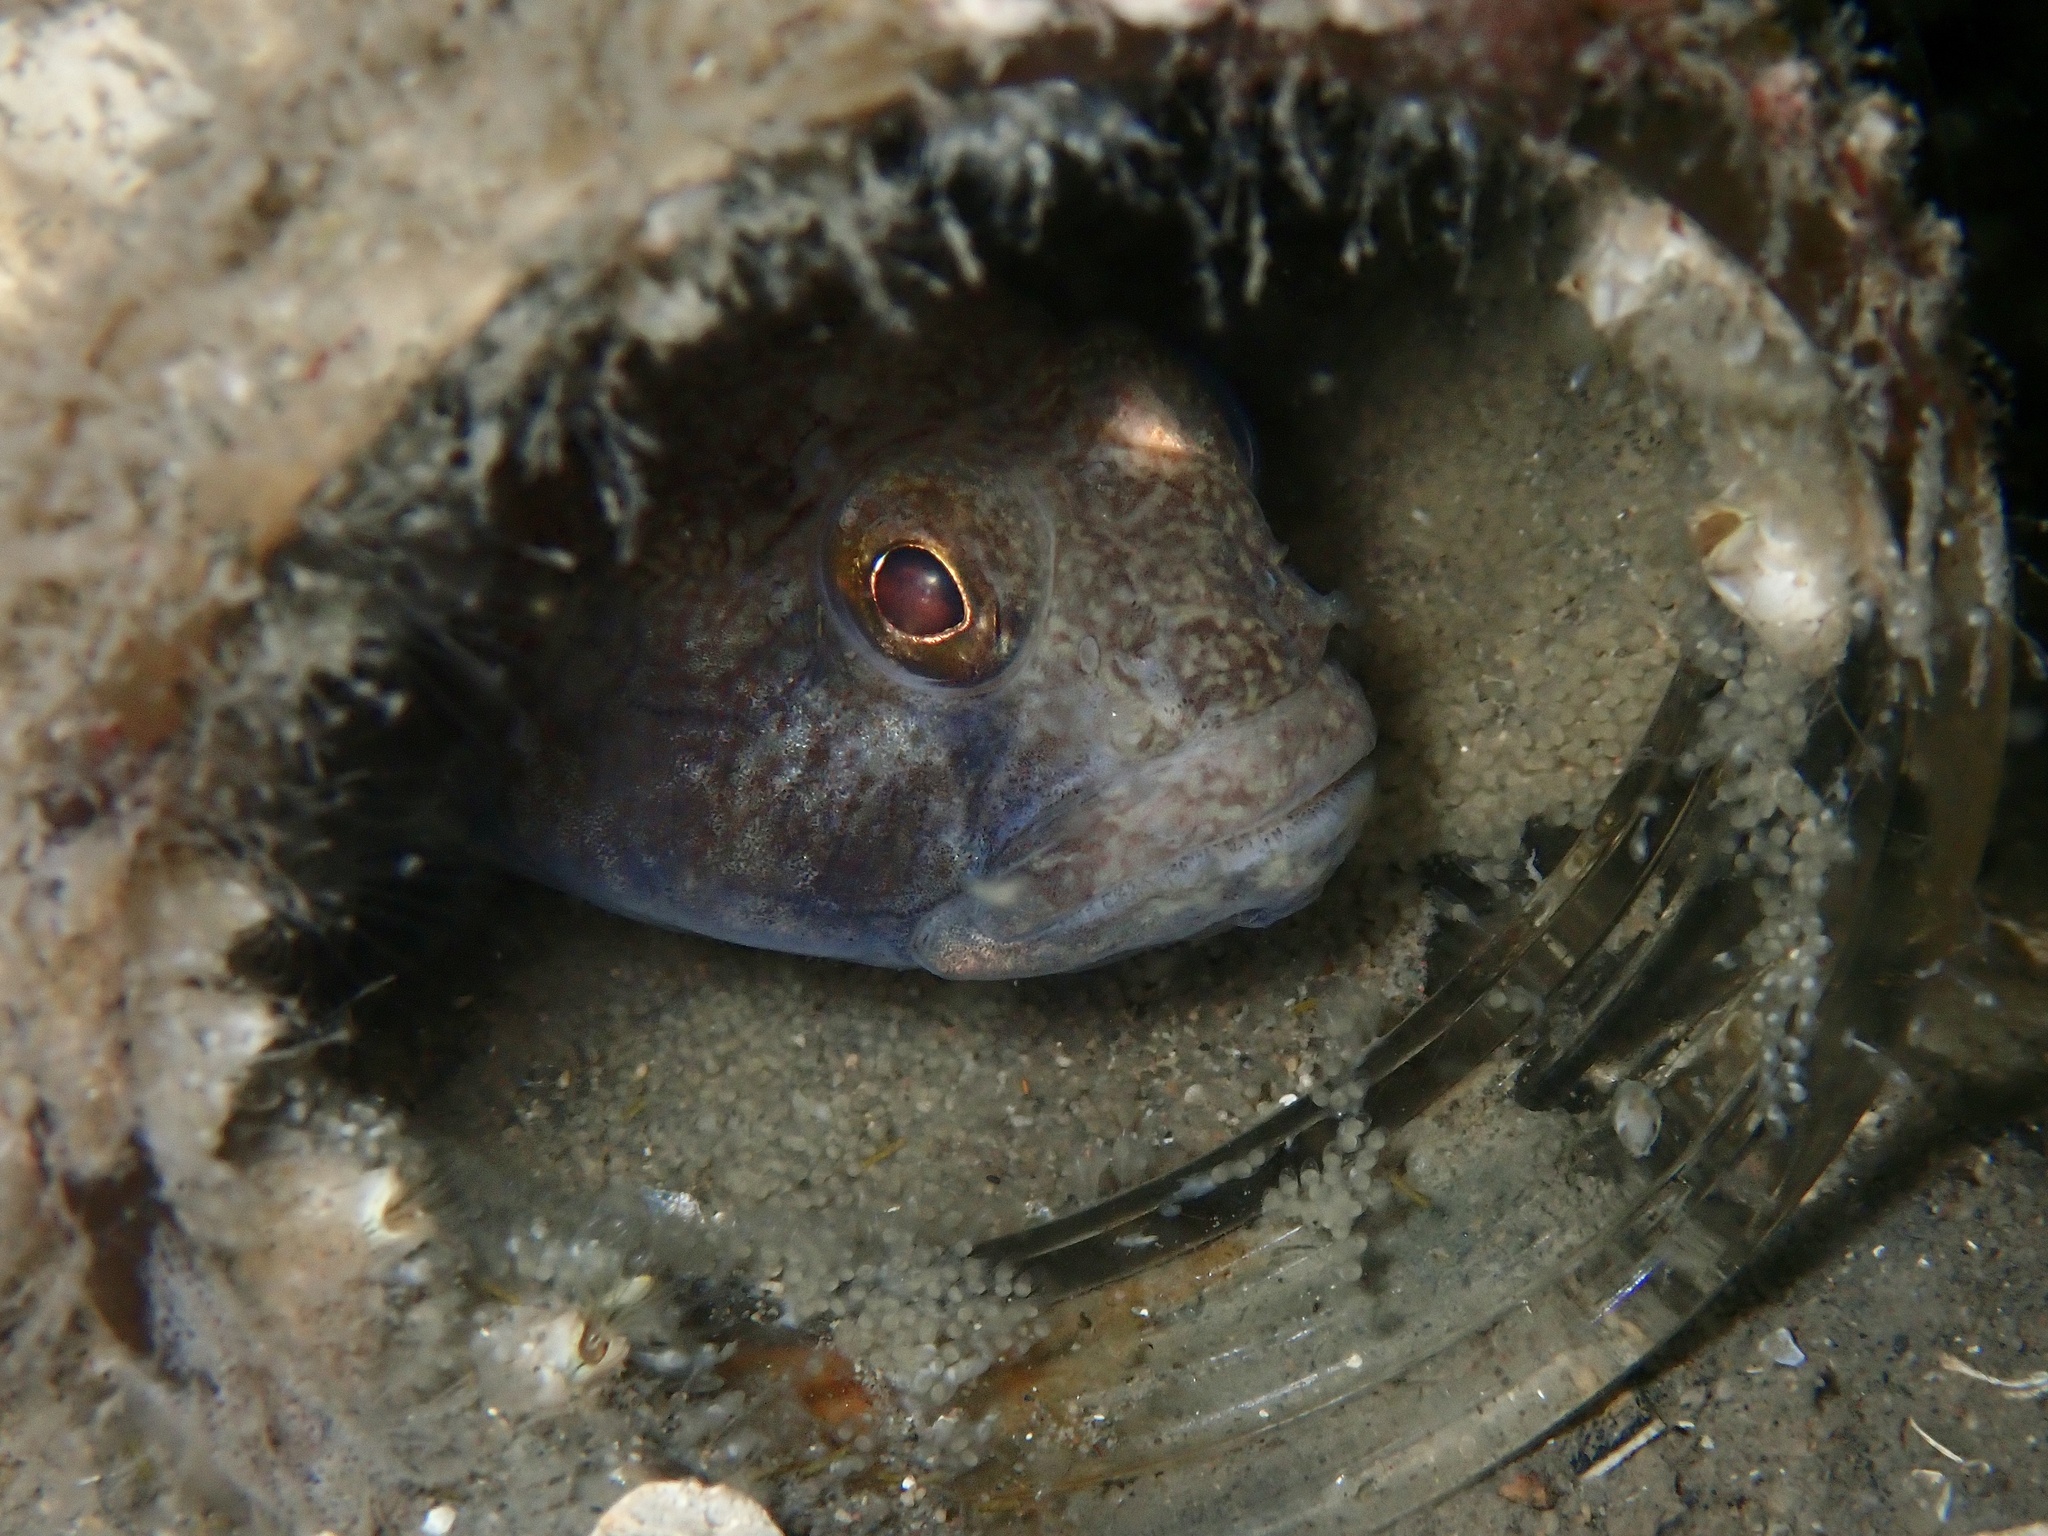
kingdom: Animalia
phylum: Chordata
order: Perciformes
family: Gobiidae
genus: Gobius
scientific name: Gobius niger
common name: Black goby
